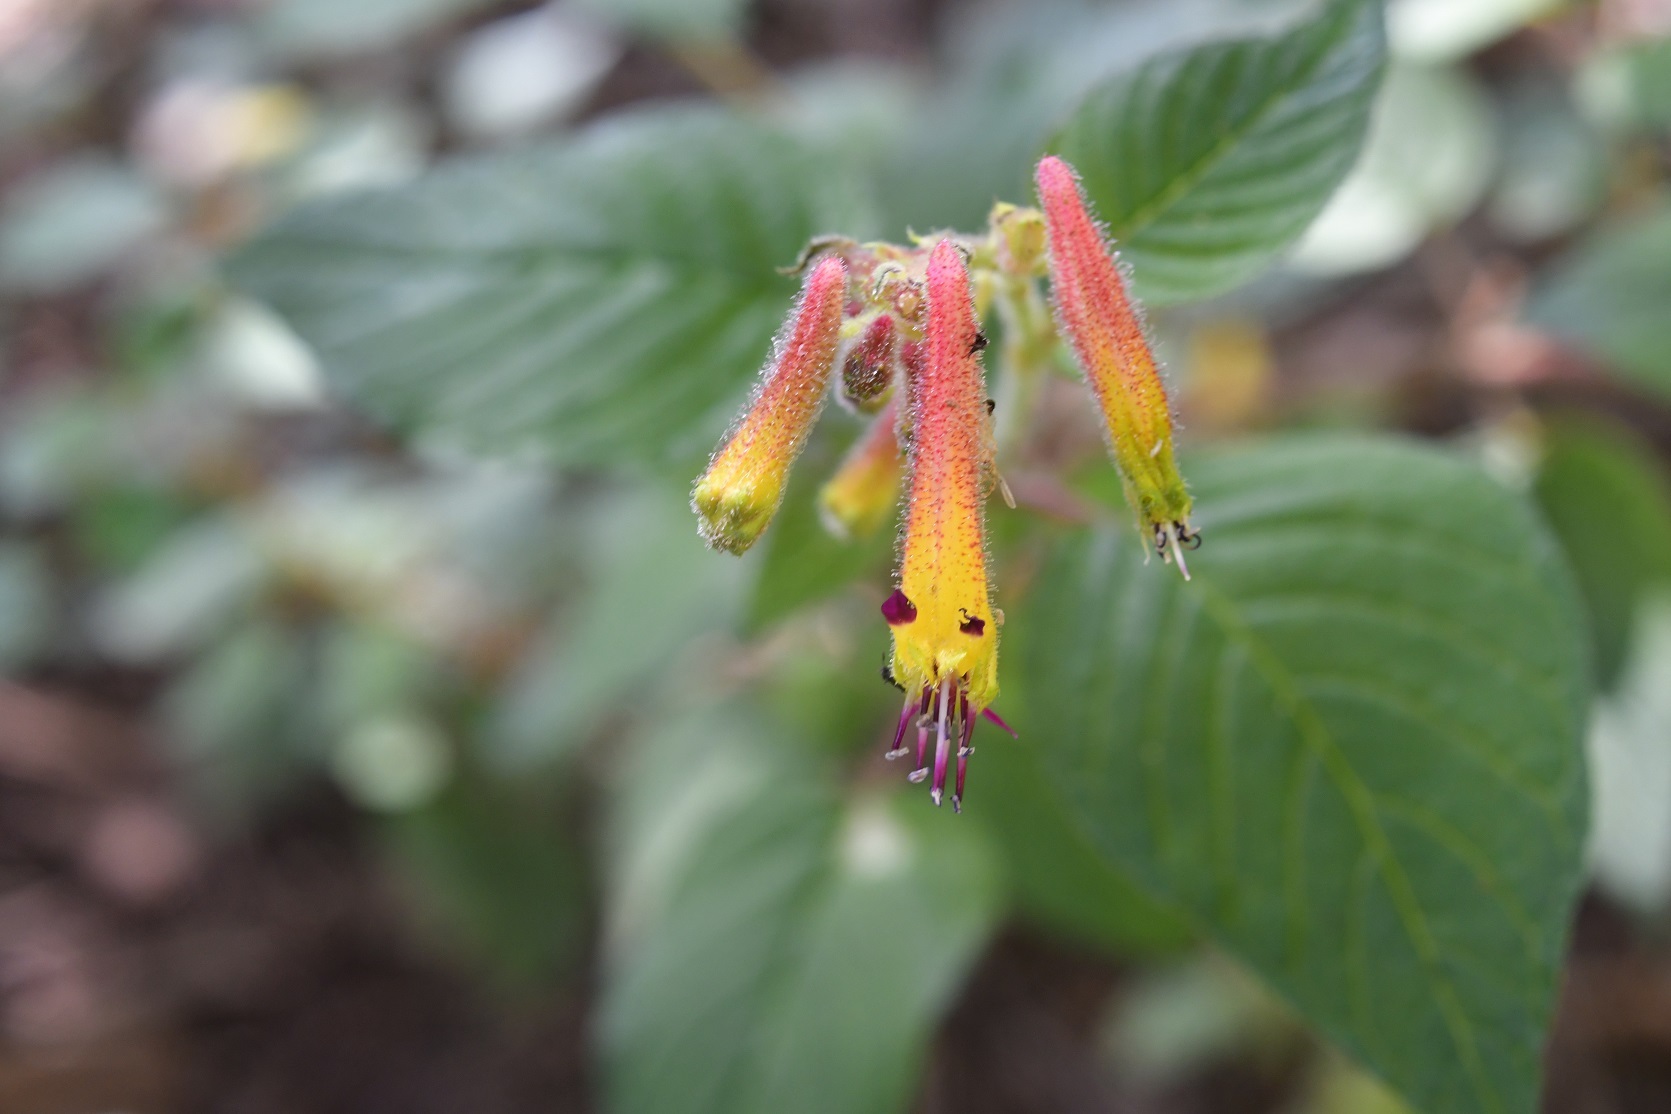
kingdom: Plantae
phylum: Tracheophyta
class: Magnoliopsida
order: Myrtales
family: Lythraceae
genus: Cuphea
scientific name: Cuphea cyanea
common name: Black-eyed cuphea
